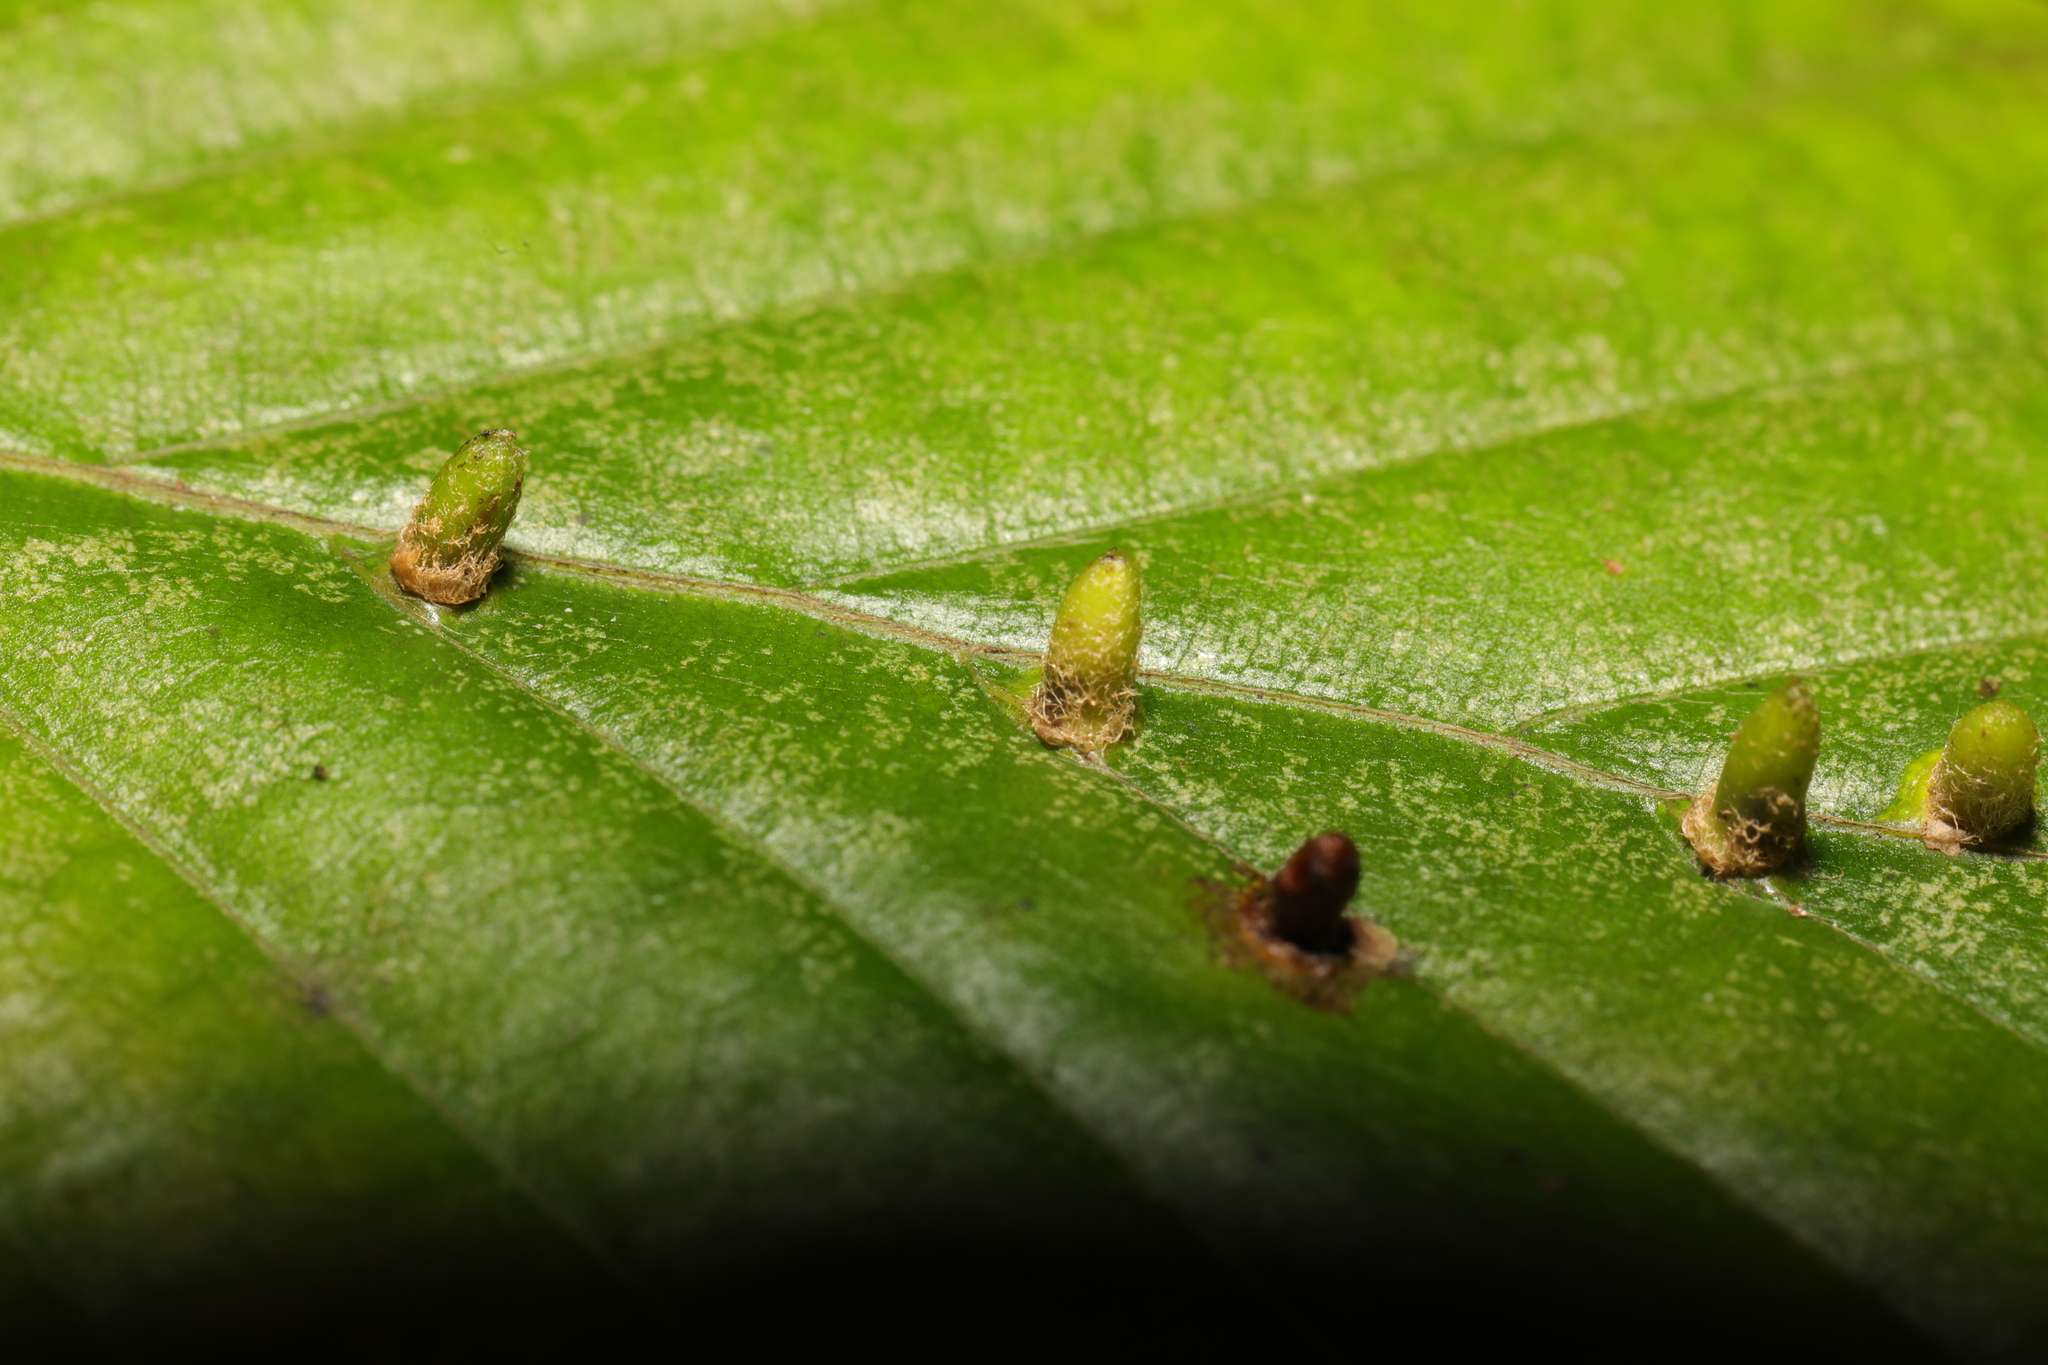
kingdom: Animalia
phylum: Arthropoda
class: Insecta
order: Diptera
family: Cecidomyiidae
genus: Hartigiola
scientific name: Hartigiola annulipes
